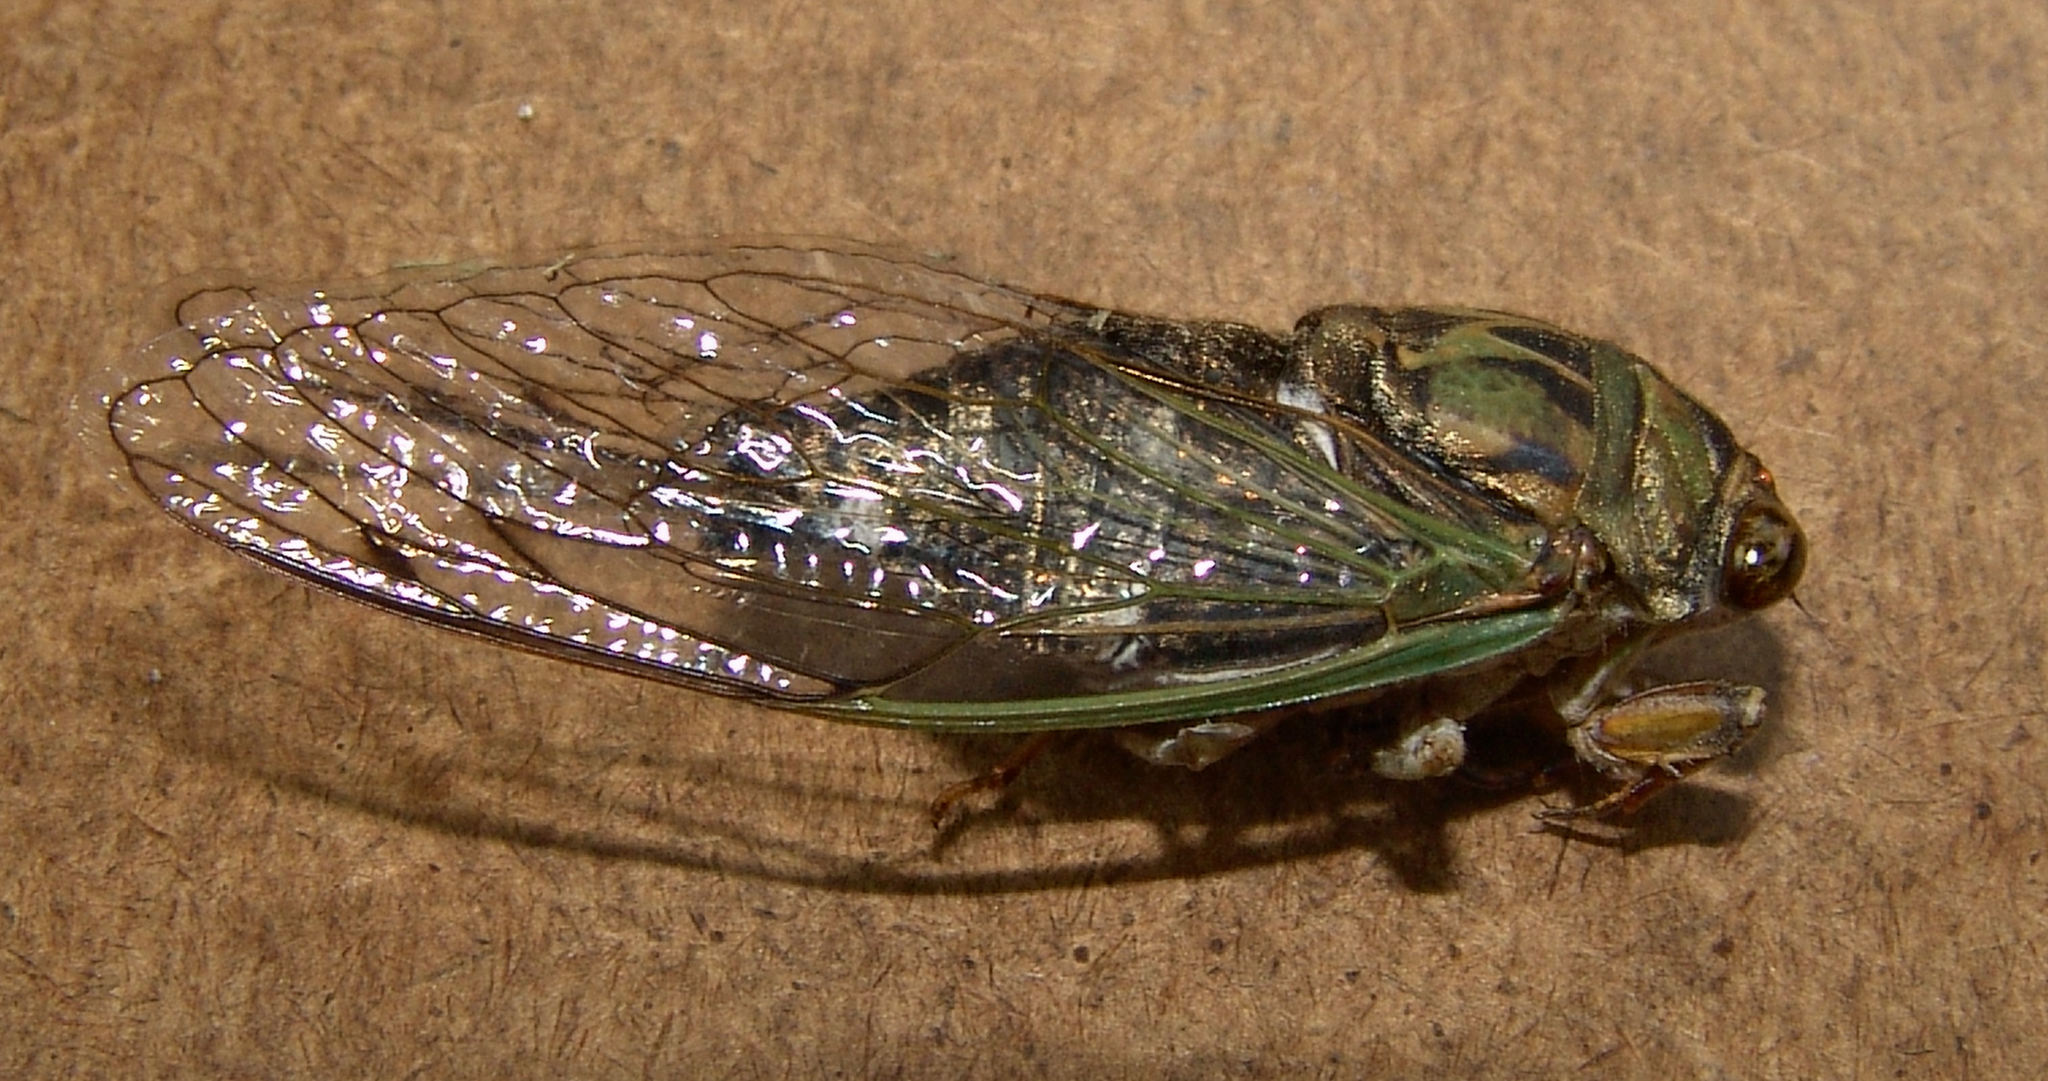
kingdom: Animalia
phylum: Arthropoda
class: Insecta
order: Hemiptera
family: Cicadidae
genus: Neotibicen
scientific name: Neotibicen pruinosus
